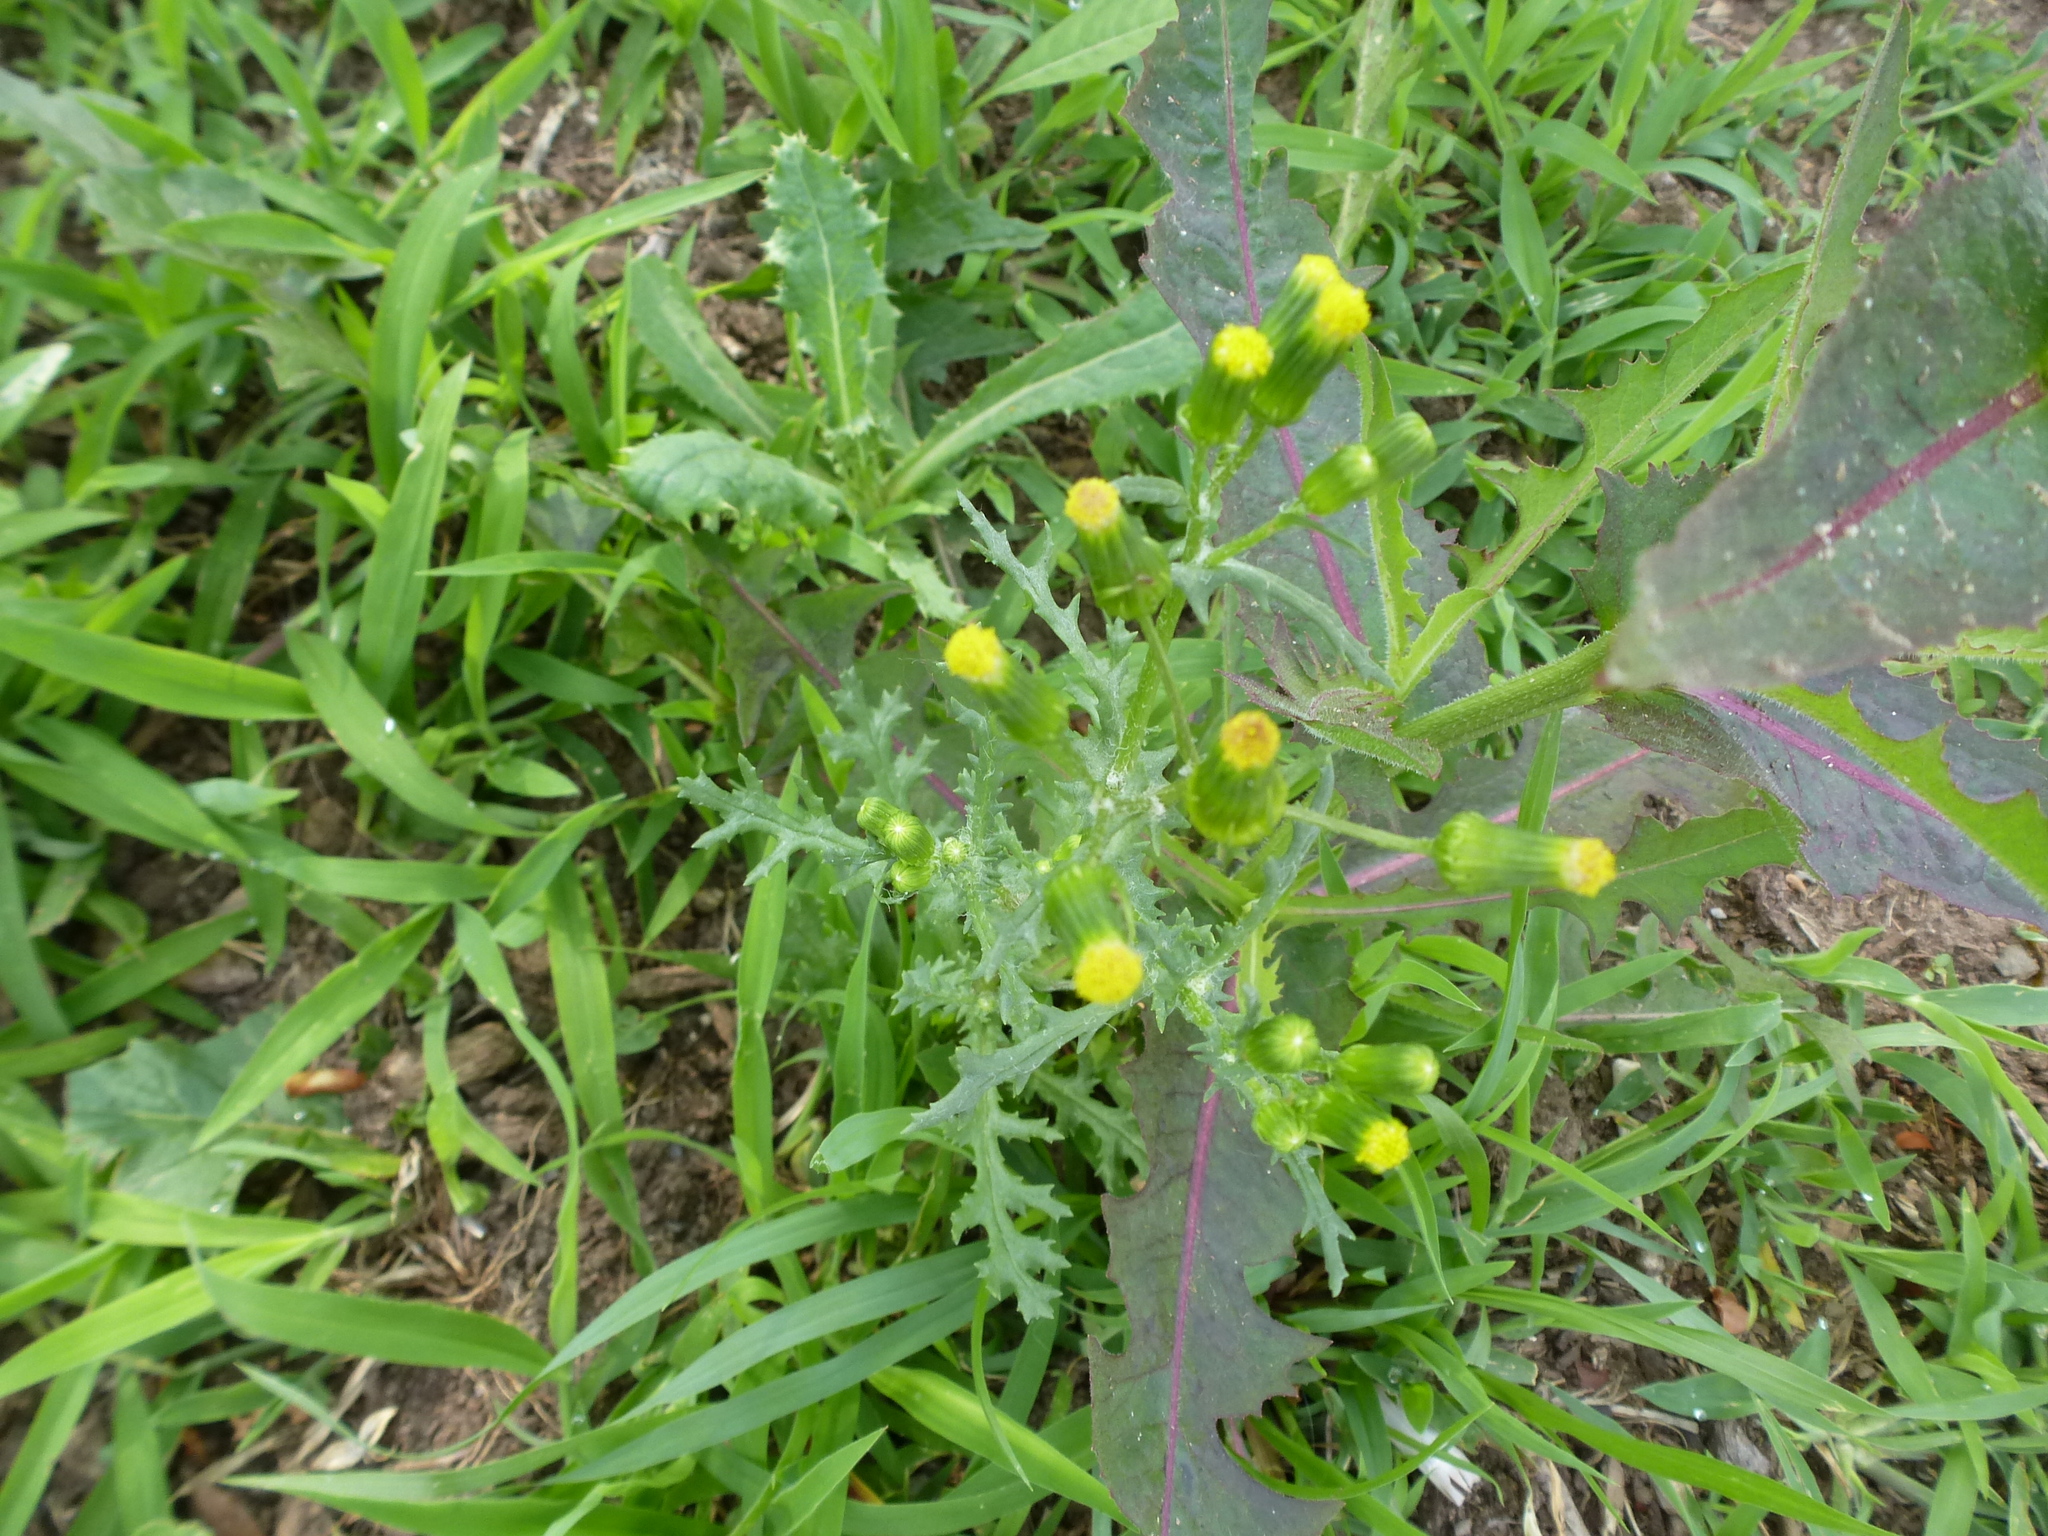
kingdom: Plantae
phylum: Tracheophyta
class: Magnoliopsida
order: Asterales
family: Asteraceae
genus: Senecio
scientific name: Senecio vulgaris
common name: Old-man-in-the-spring
